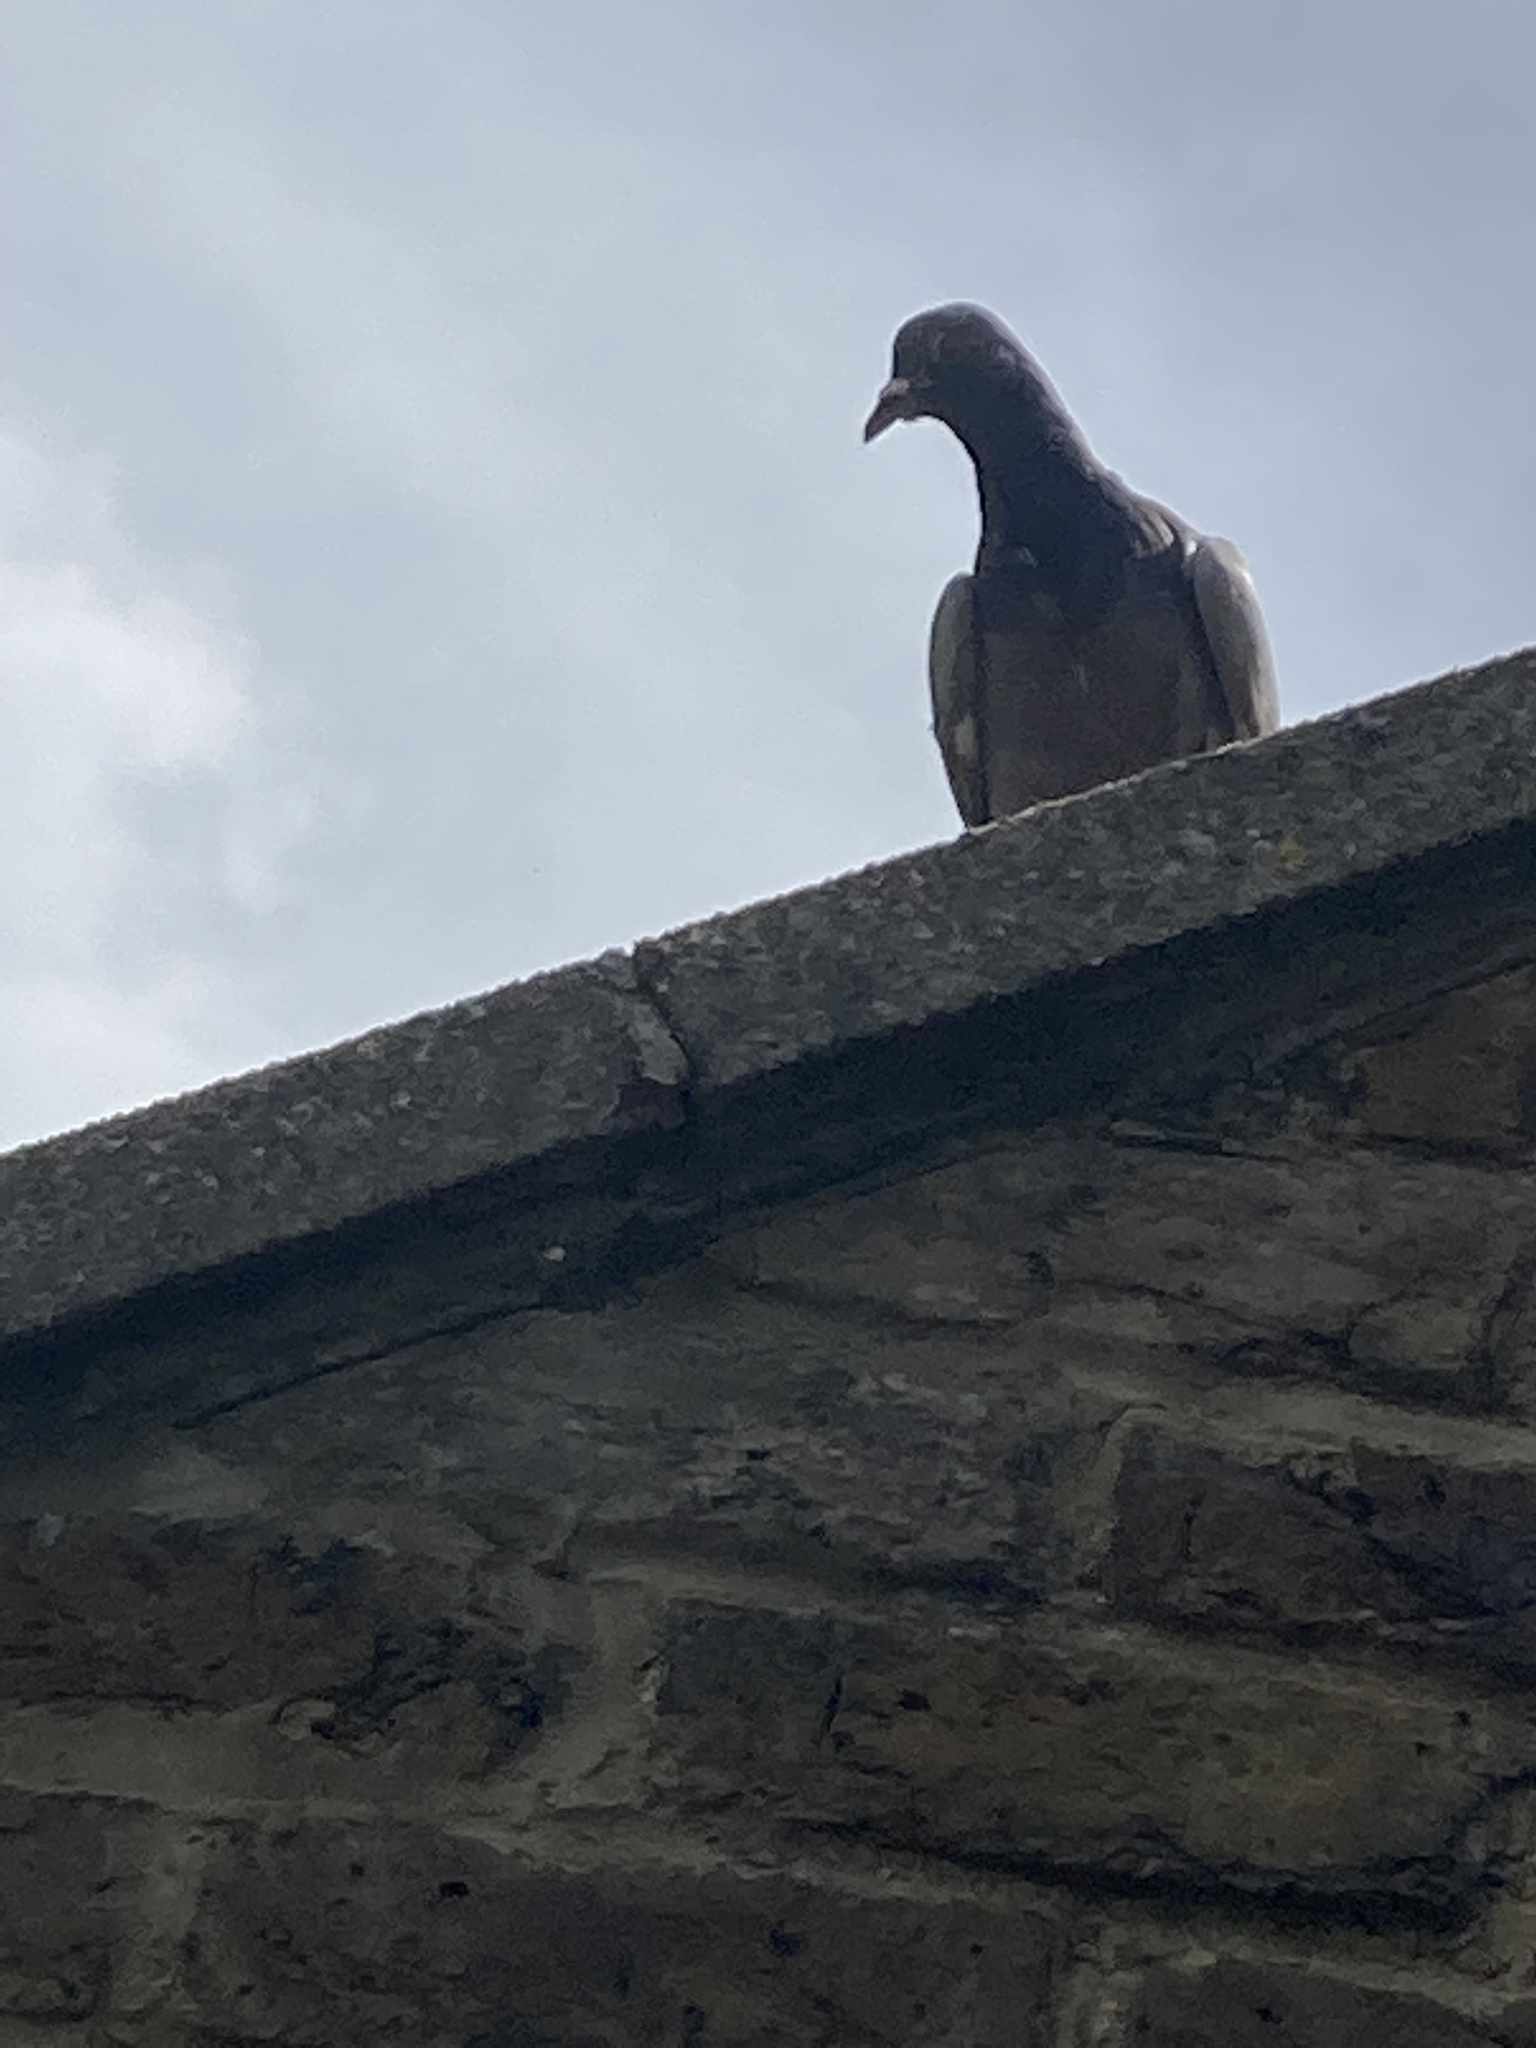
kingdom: Animalia
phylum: Chordata
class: Aves
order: Columbiformes
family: Columbidae
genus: Columba
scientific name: Columba livia
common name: Rock pigeon
